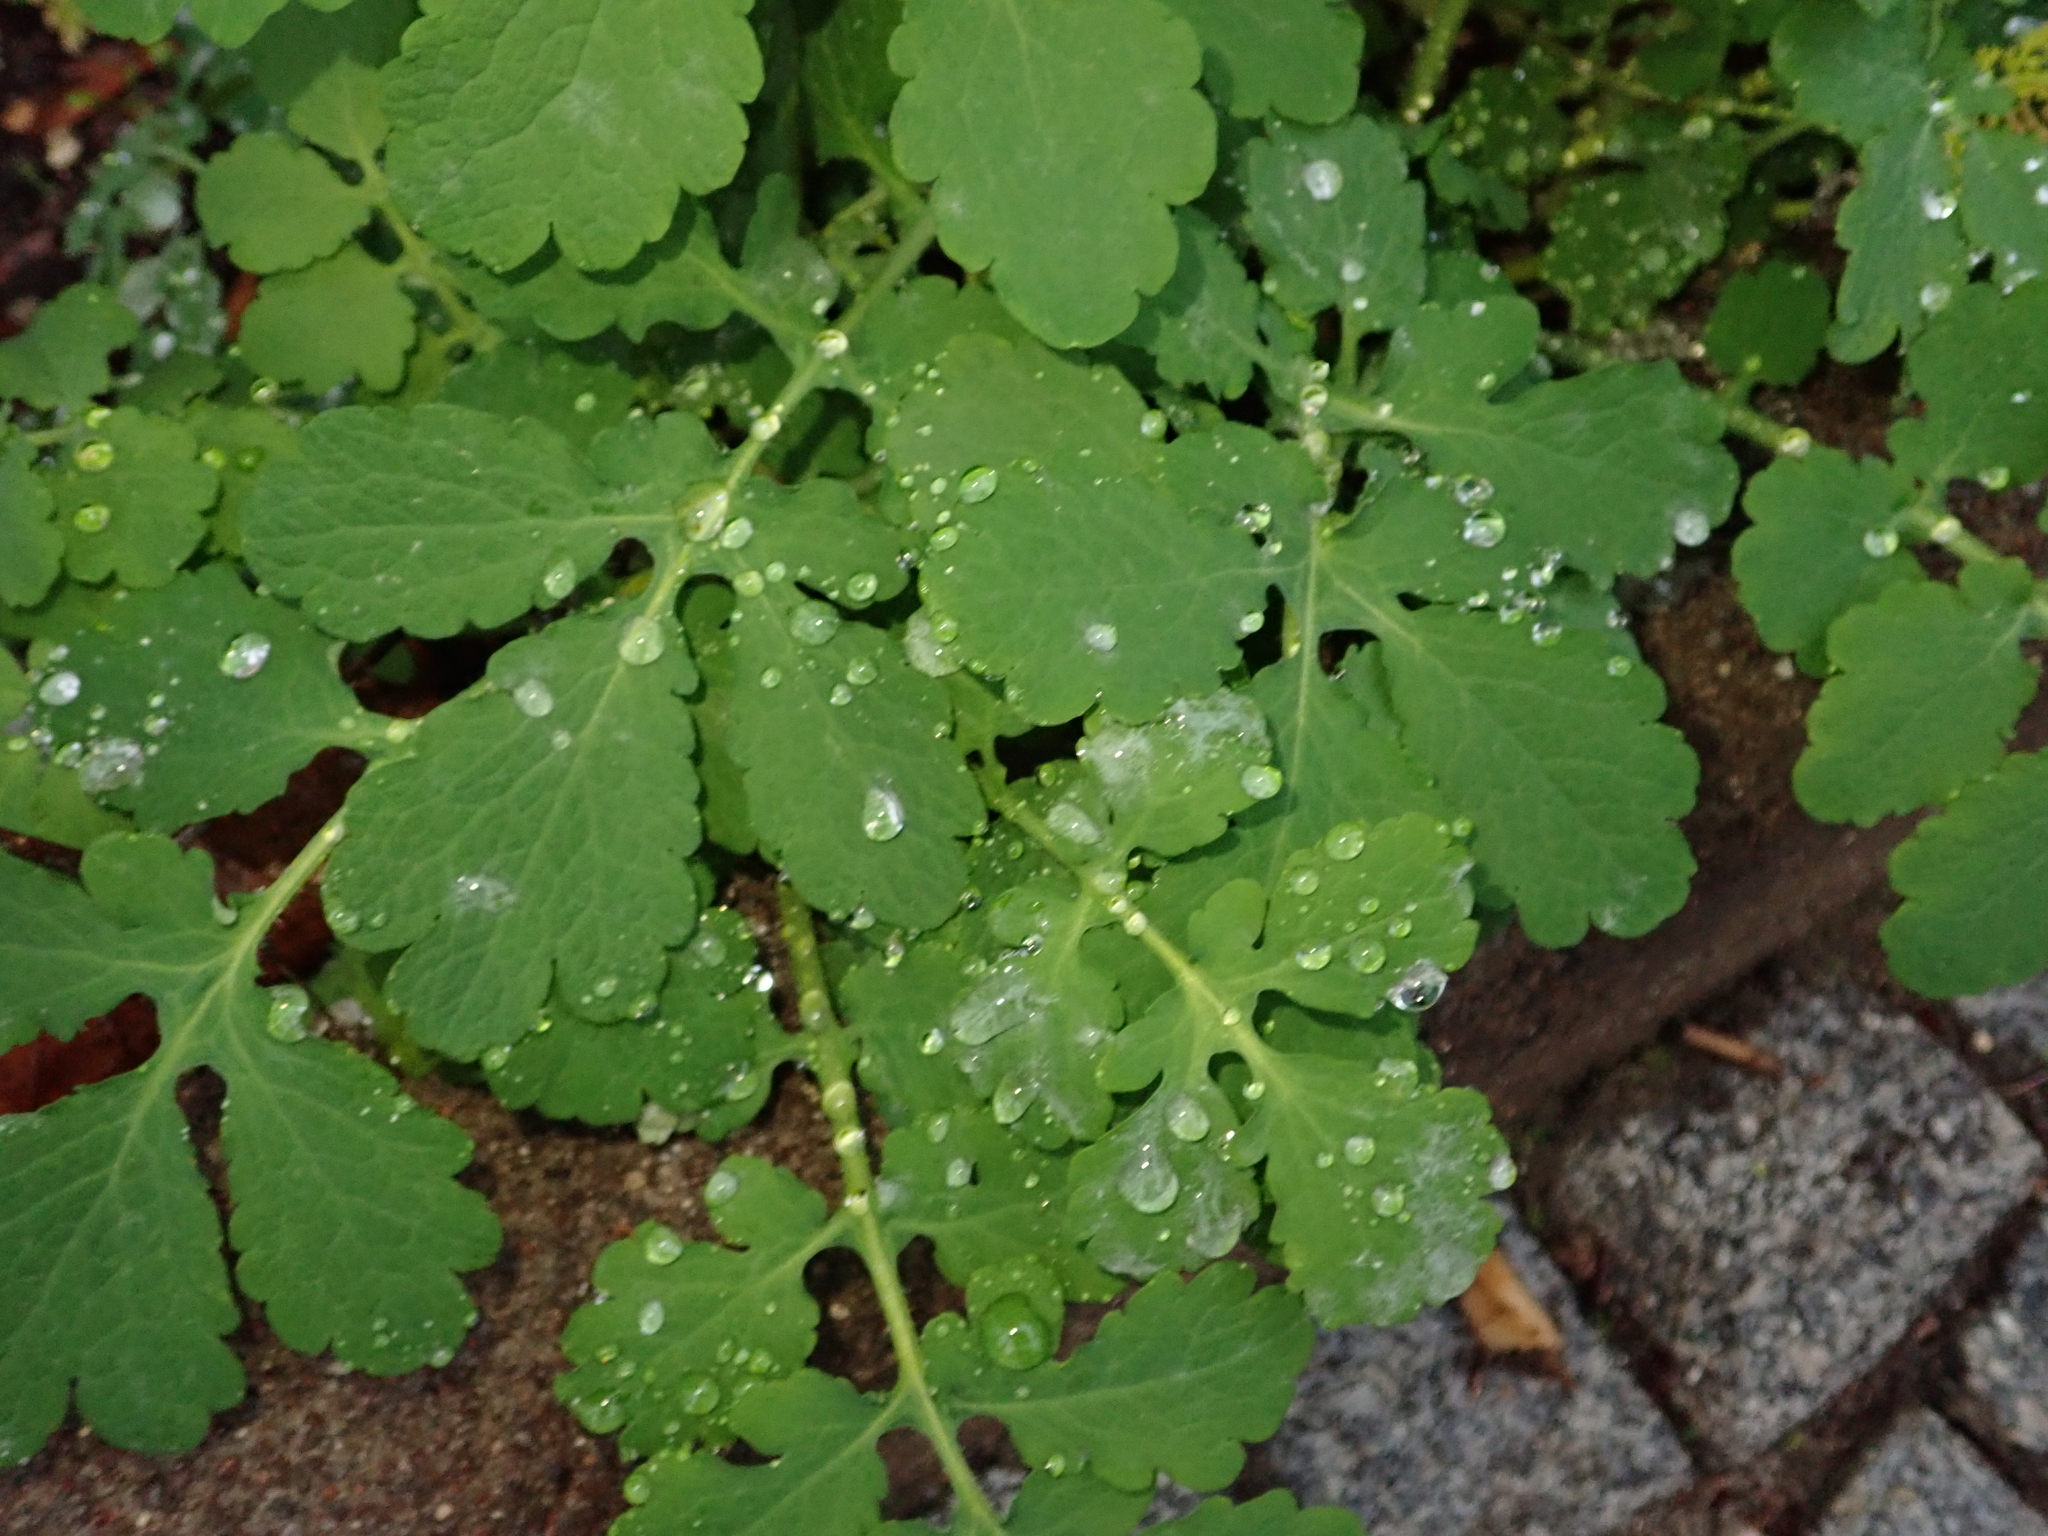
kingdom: Plantae
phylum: Tracheophyta
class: Magnoliopsida
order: Ranunculales
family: Papaveraceae
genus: Chelidonium
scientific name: Chelidonium majus
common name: Greater celandine
